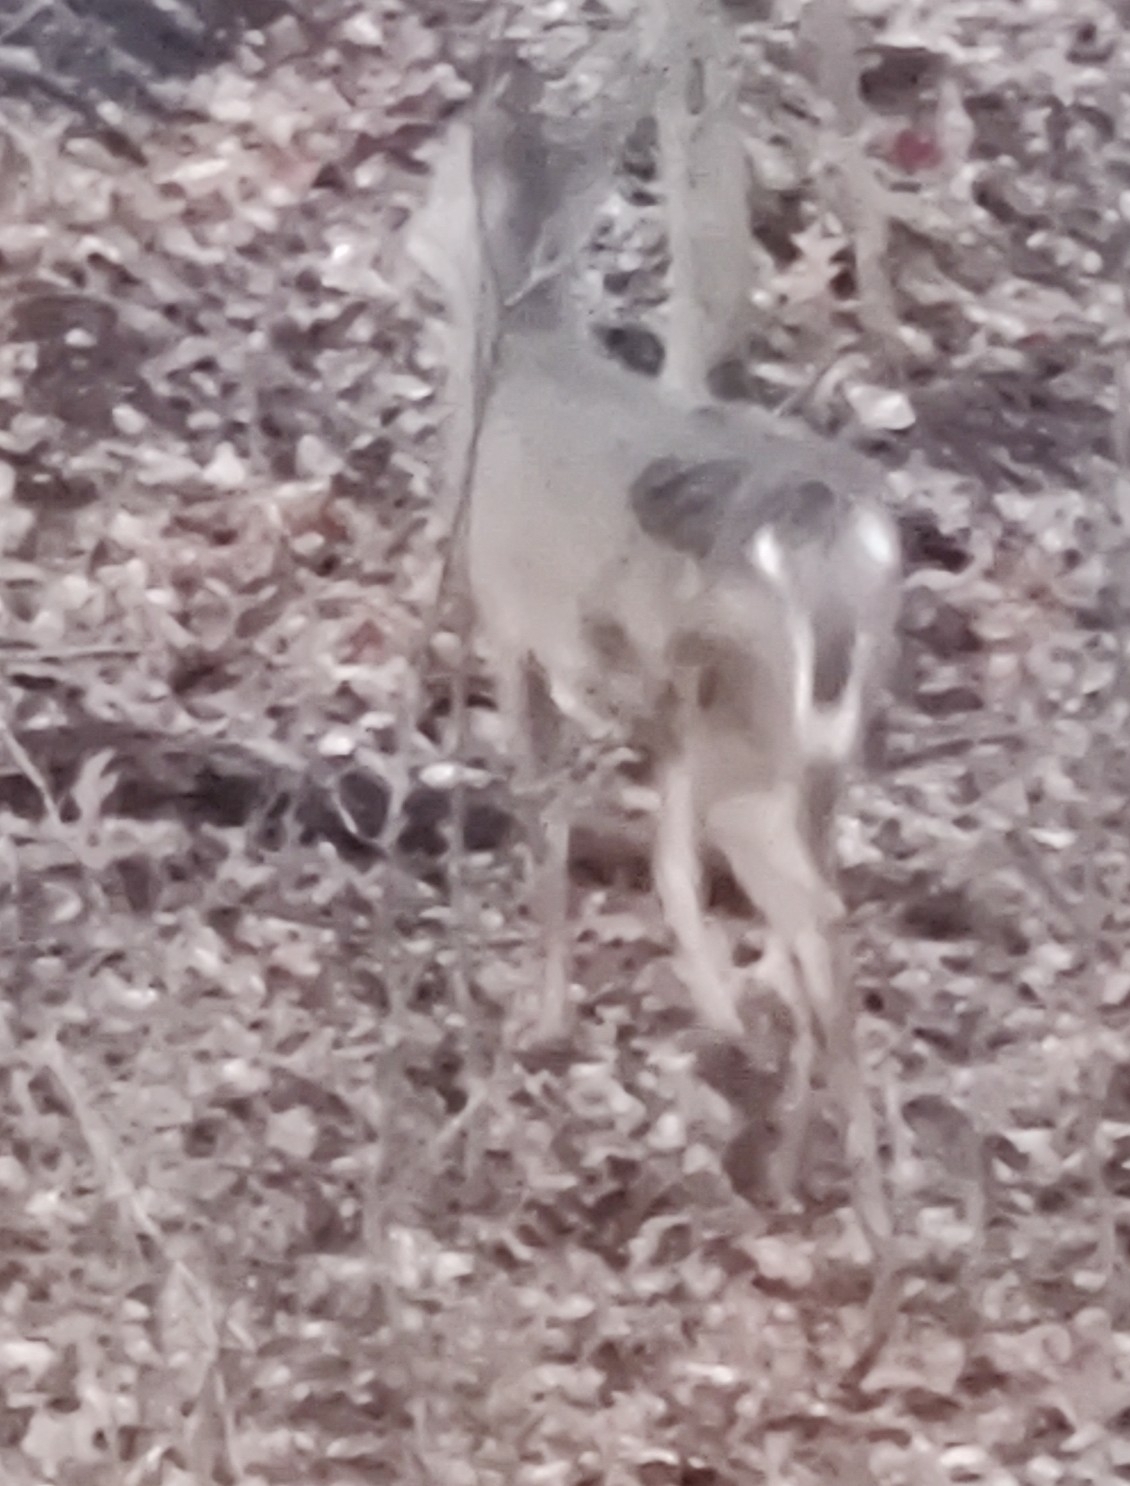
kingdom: Animalia
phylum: Chordata
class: Mammalia
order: Artiodactyla
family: Cervidae
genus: Odocoileus
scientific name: Odocoileus virginianus
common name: White-tailed deer
